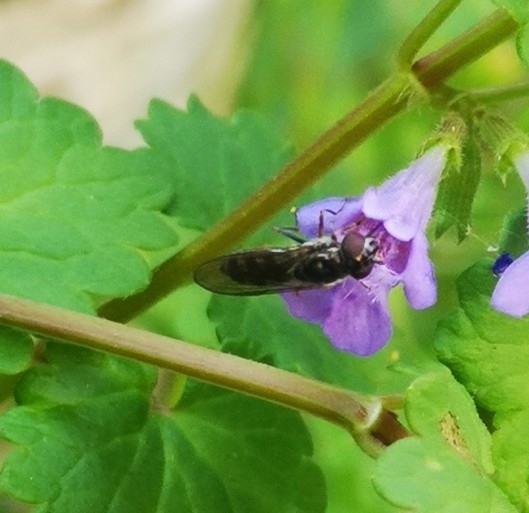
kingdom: Animalia
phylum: Arthropoda
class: Insecta
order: Diptera
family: Syrphidae
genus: Platycheirus
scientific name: Platycheirus albimanus
